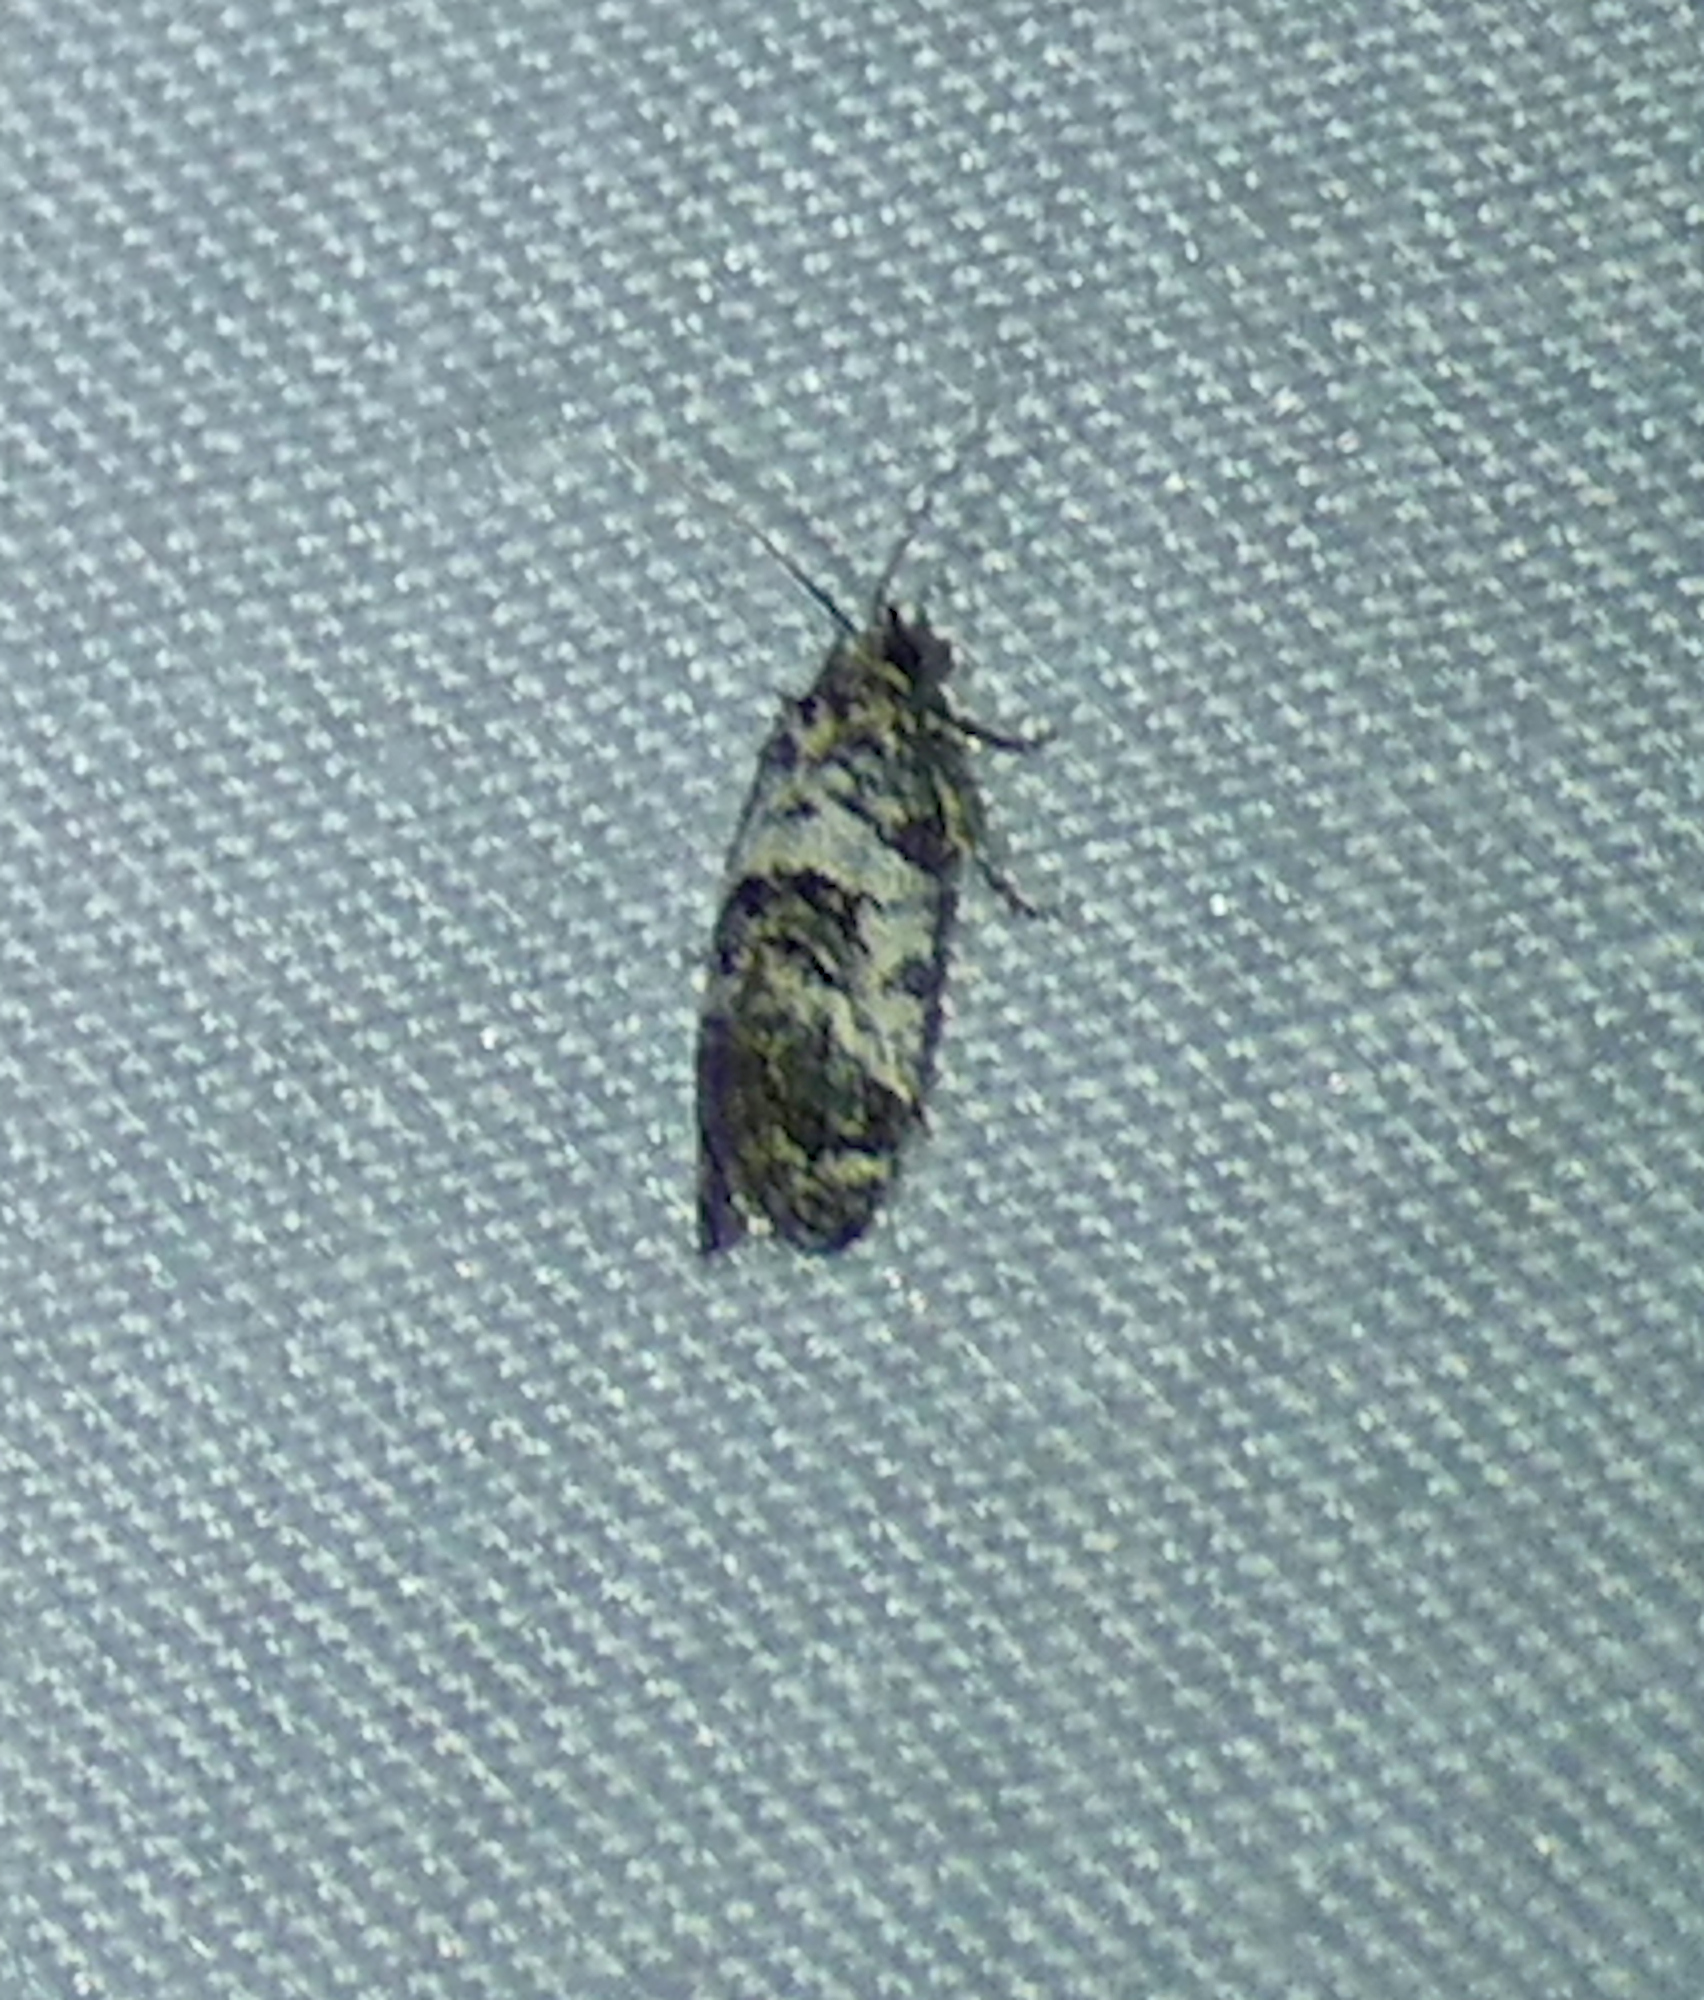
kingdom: Animalia
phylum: Arthropoda
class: Insecta
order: Lepidoptera
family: Tortricidae
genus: Rudenia
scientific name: Rudenia leguminana
